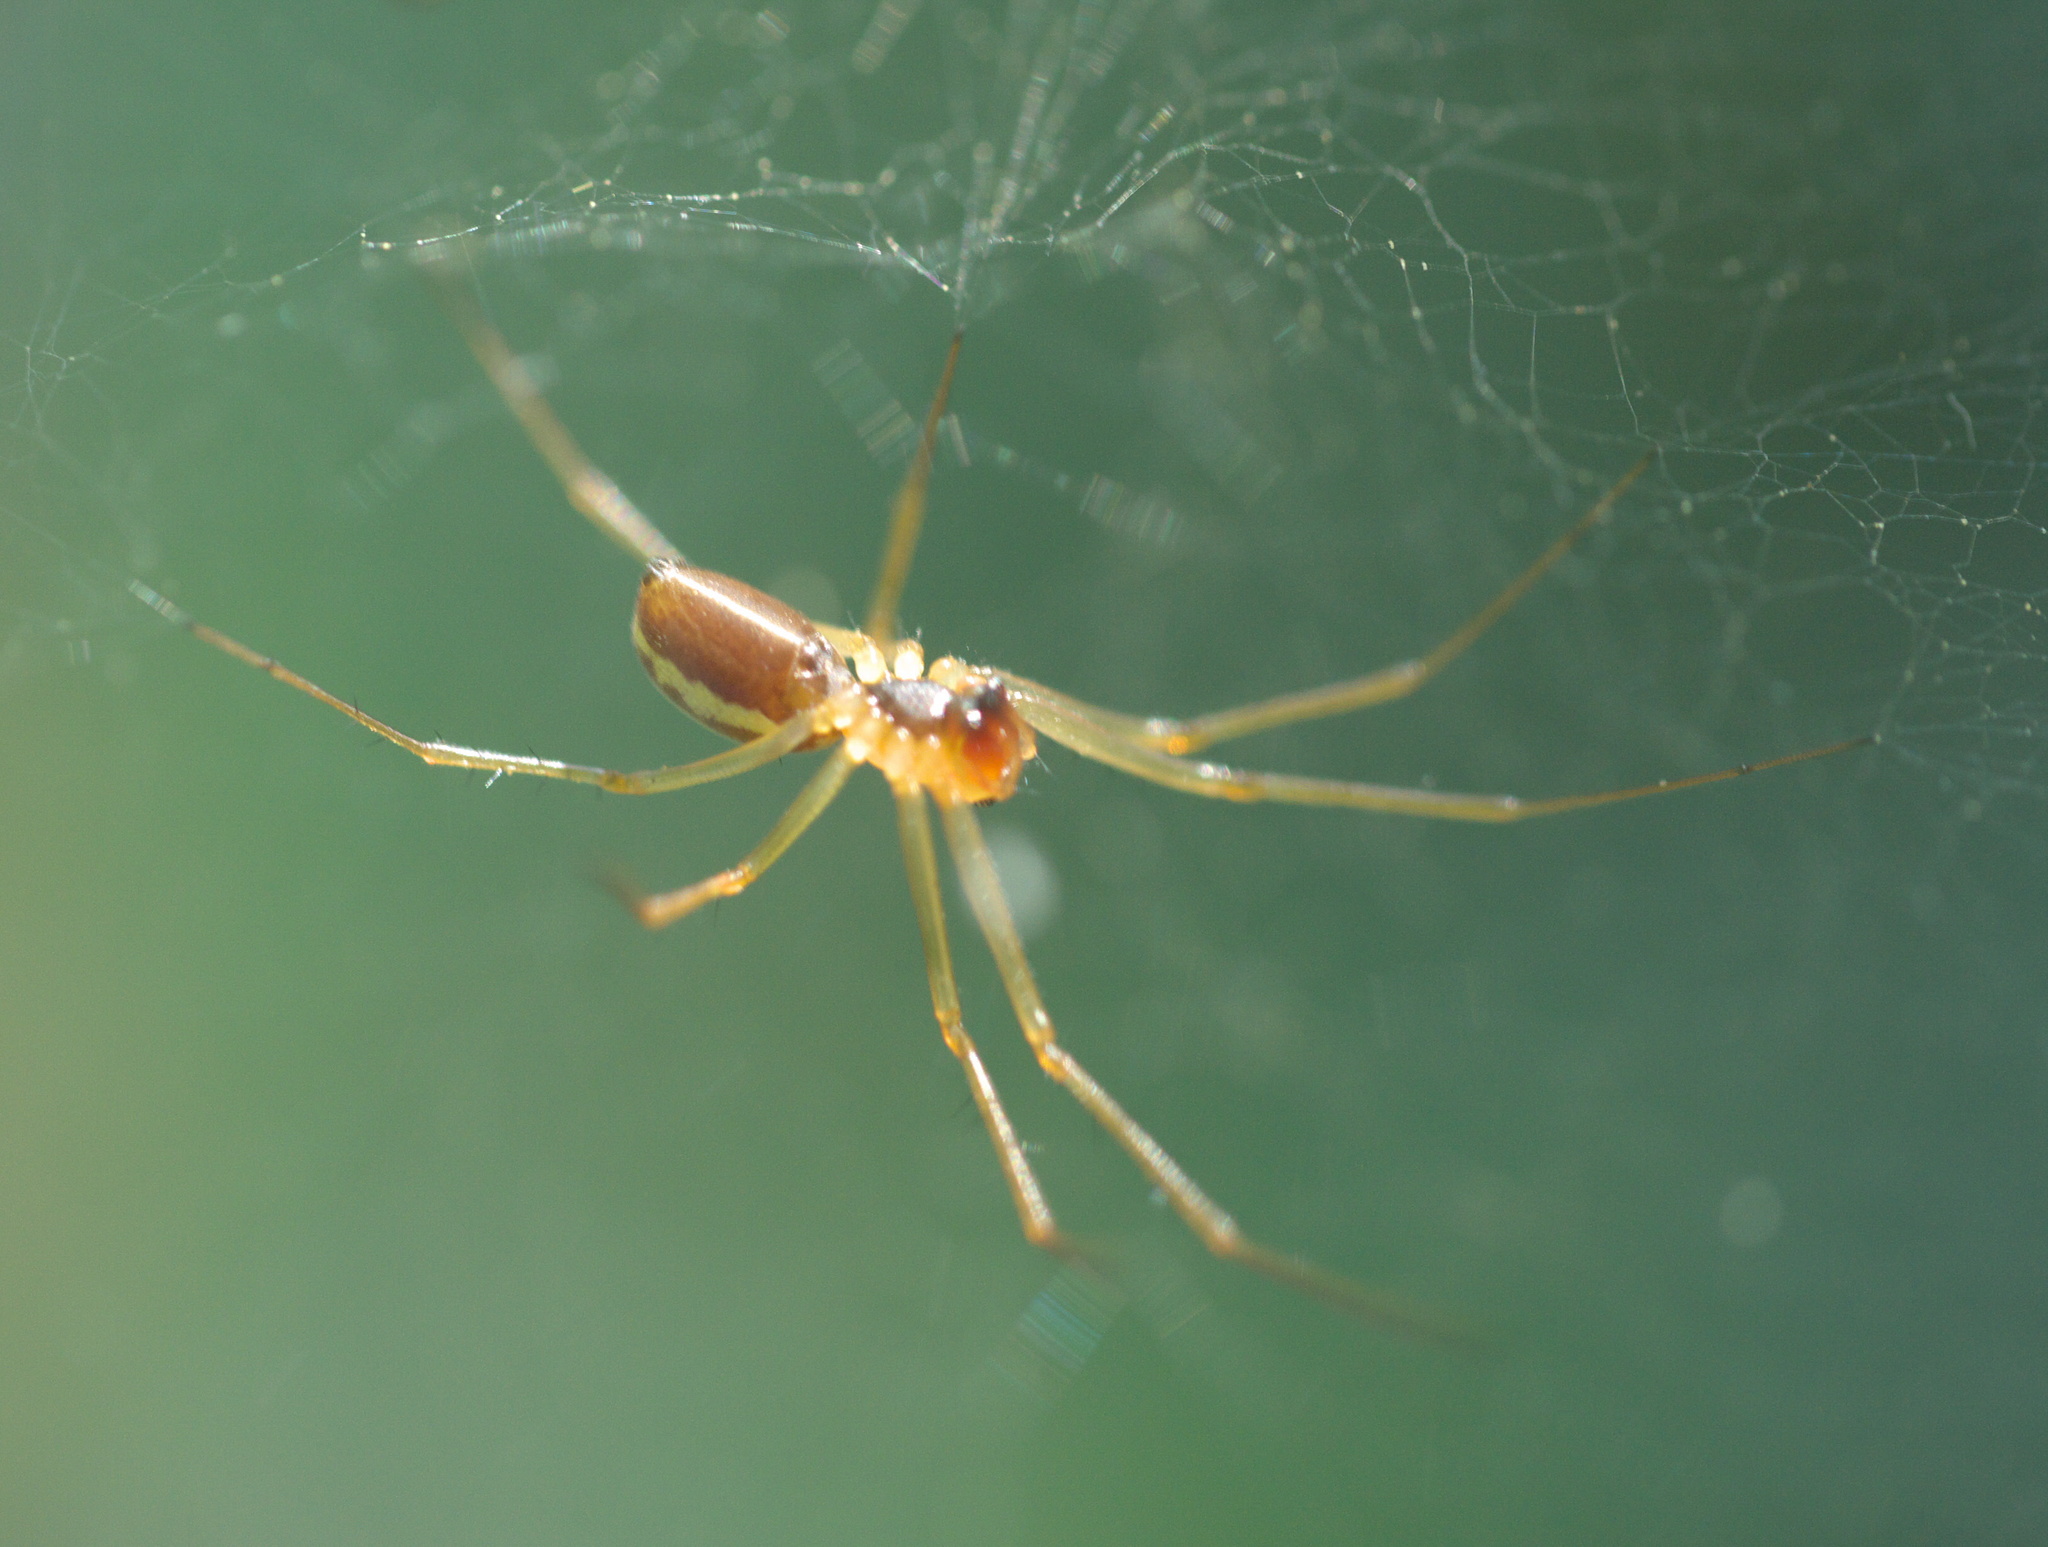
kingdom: Animalia
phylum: Arthropoda
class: Arachnida
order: Araneae
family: Linyphiidae
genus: Microlinyphia
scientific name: Microlinyphia dana
